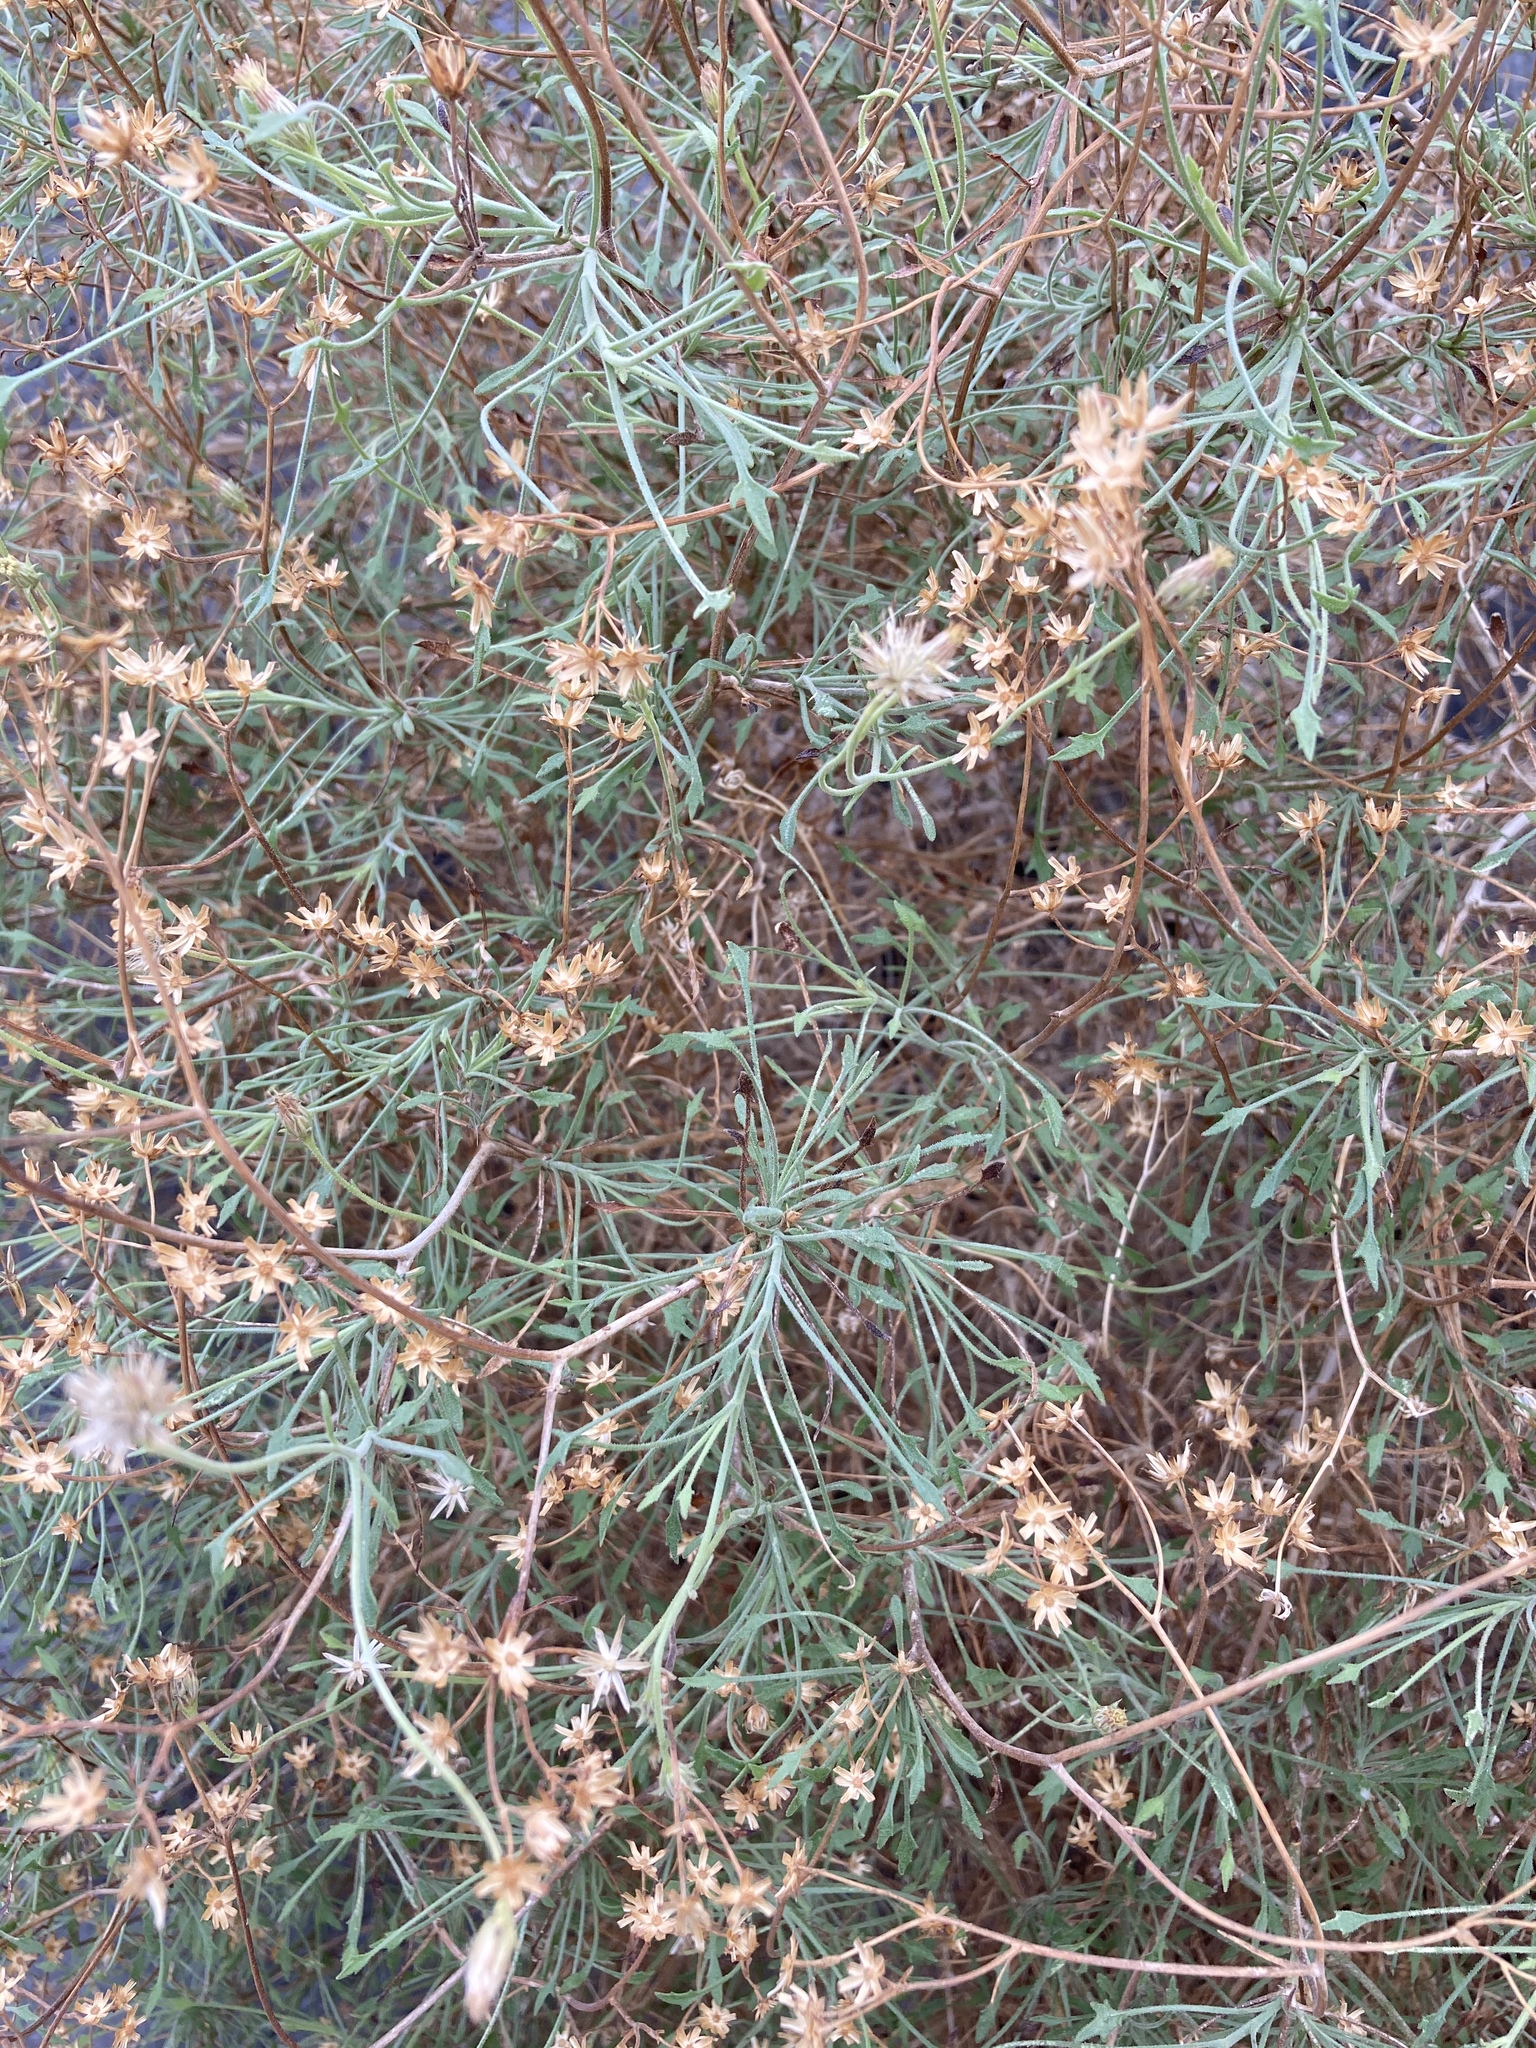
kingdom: Plantae
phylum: Tracheophyta
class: Magnoliopsida
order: Asterales
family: Asteraceae
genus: Pleurocoronis
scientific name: Pleurocoronis pluriseta
